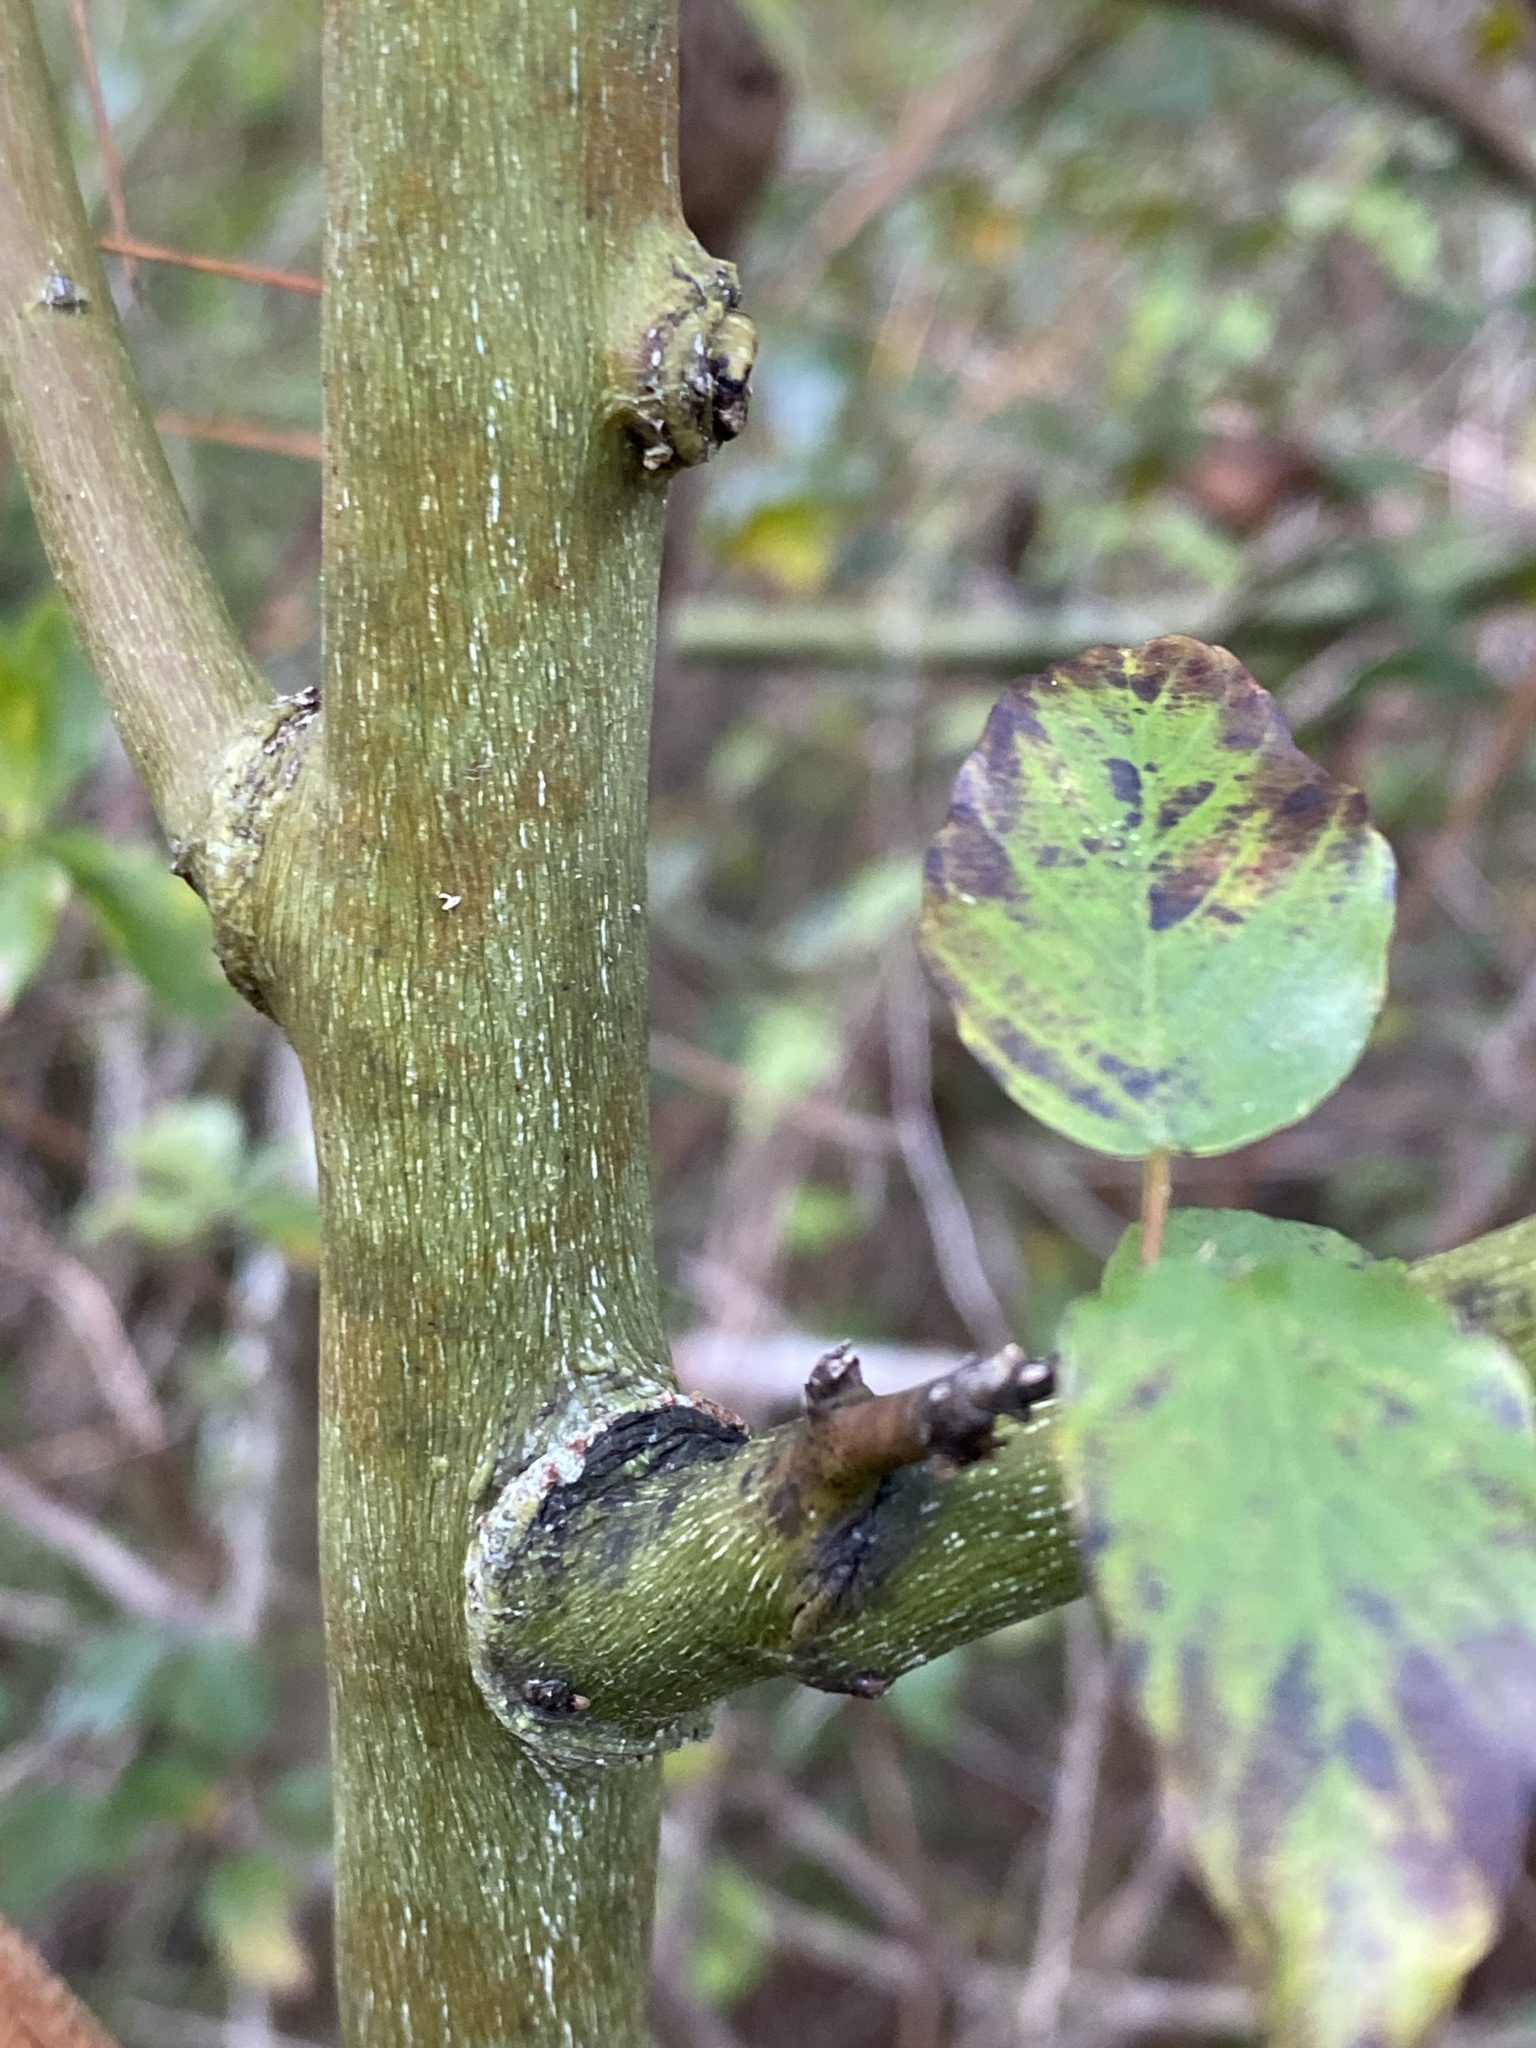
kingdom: Plantae
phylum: Tracheophyta
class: Magnoliopsida
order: Rosales
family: Rhamnaceae
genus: Berchemia
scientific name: Berchemia scandens
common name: Supplejack
